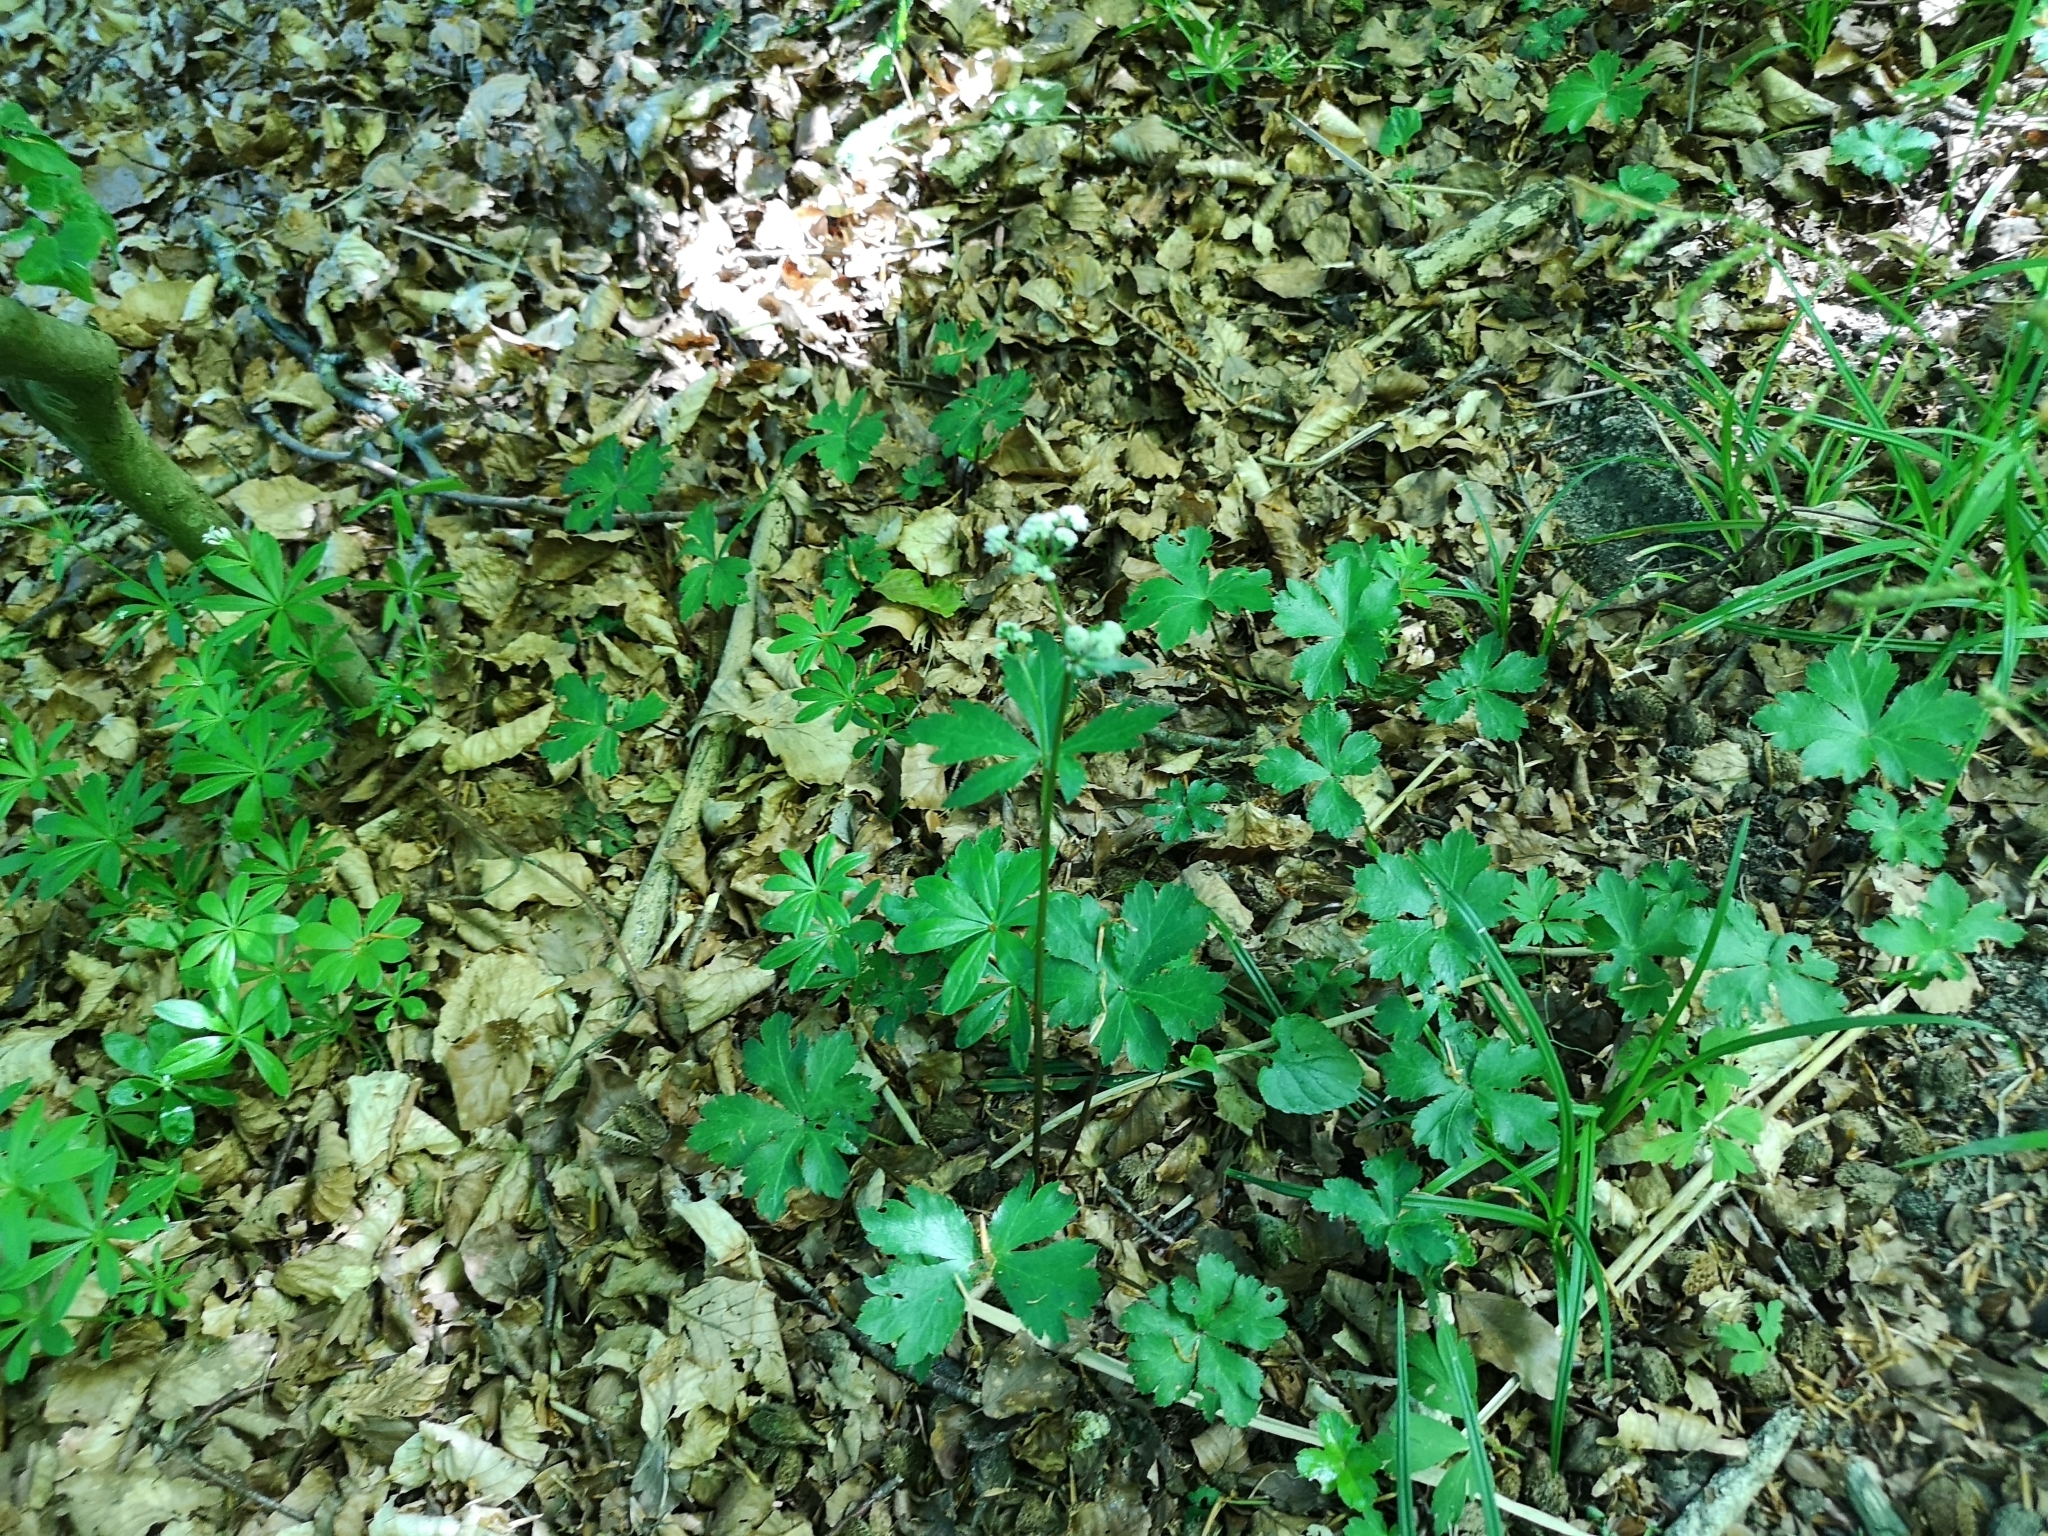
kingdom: Plantae
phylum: Tracheophyta
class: Magnoliopsida
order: Apiales
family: Apiaceae
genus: Sanicula
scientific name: Sanicula europaea
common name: Sanicle
